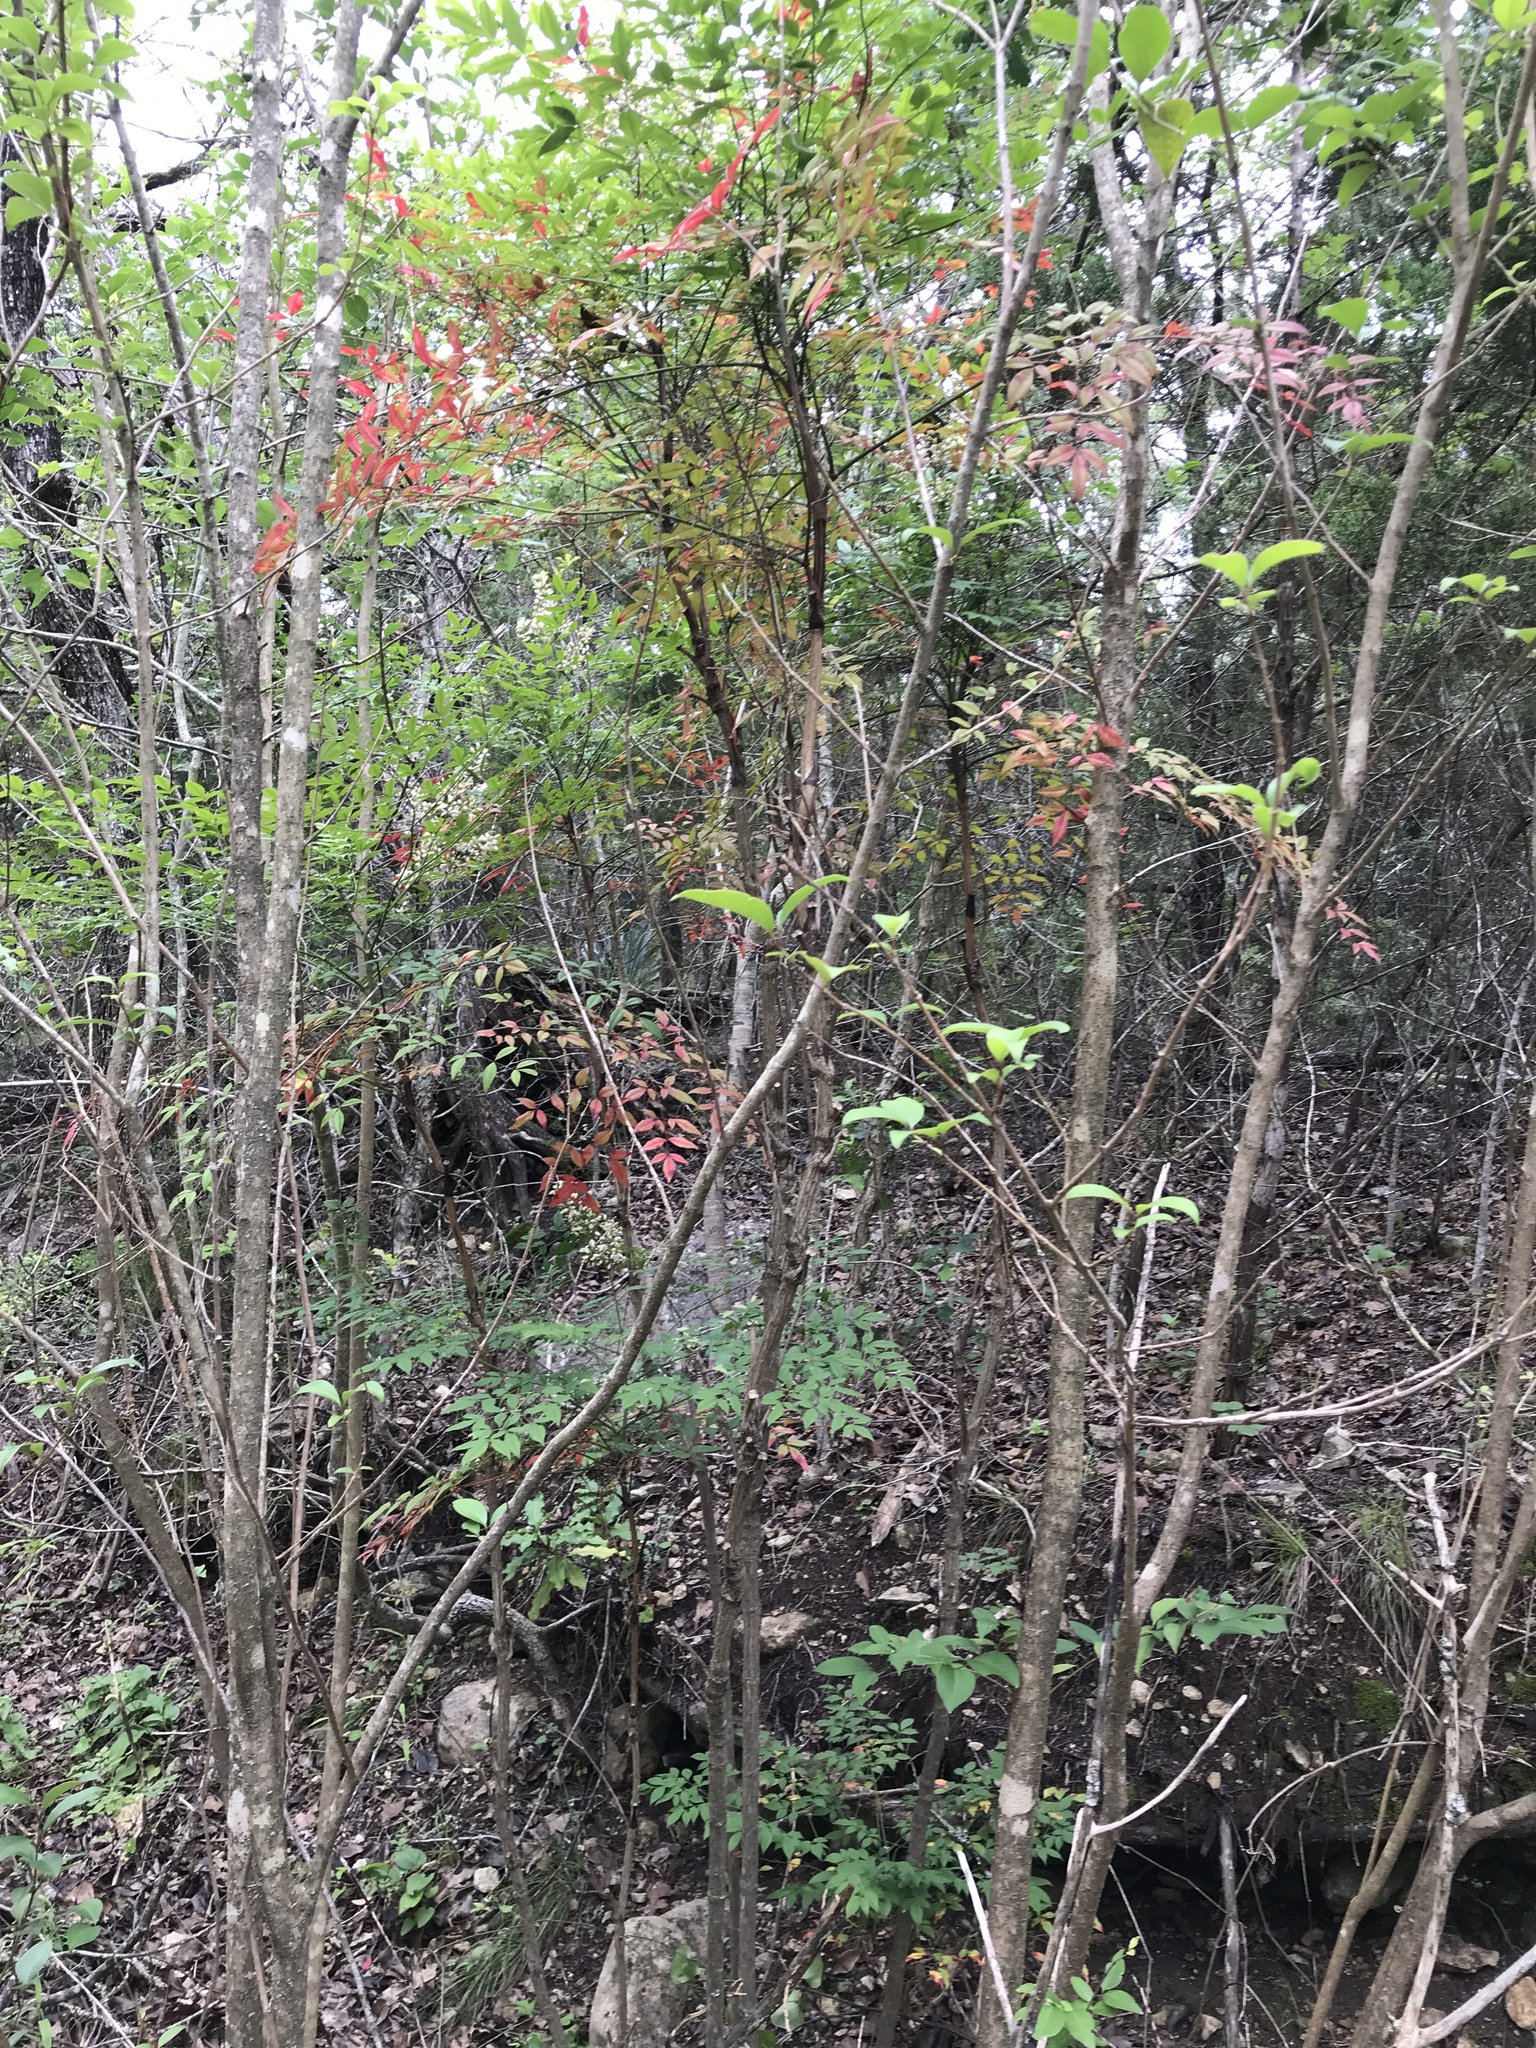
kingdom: Plantae
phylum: Tracheophyta
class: Magnoliopsida
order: Ranunculales
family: Berberidaceae
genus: Nandina
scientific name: Nandina domestica
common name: Sacred bamboo
